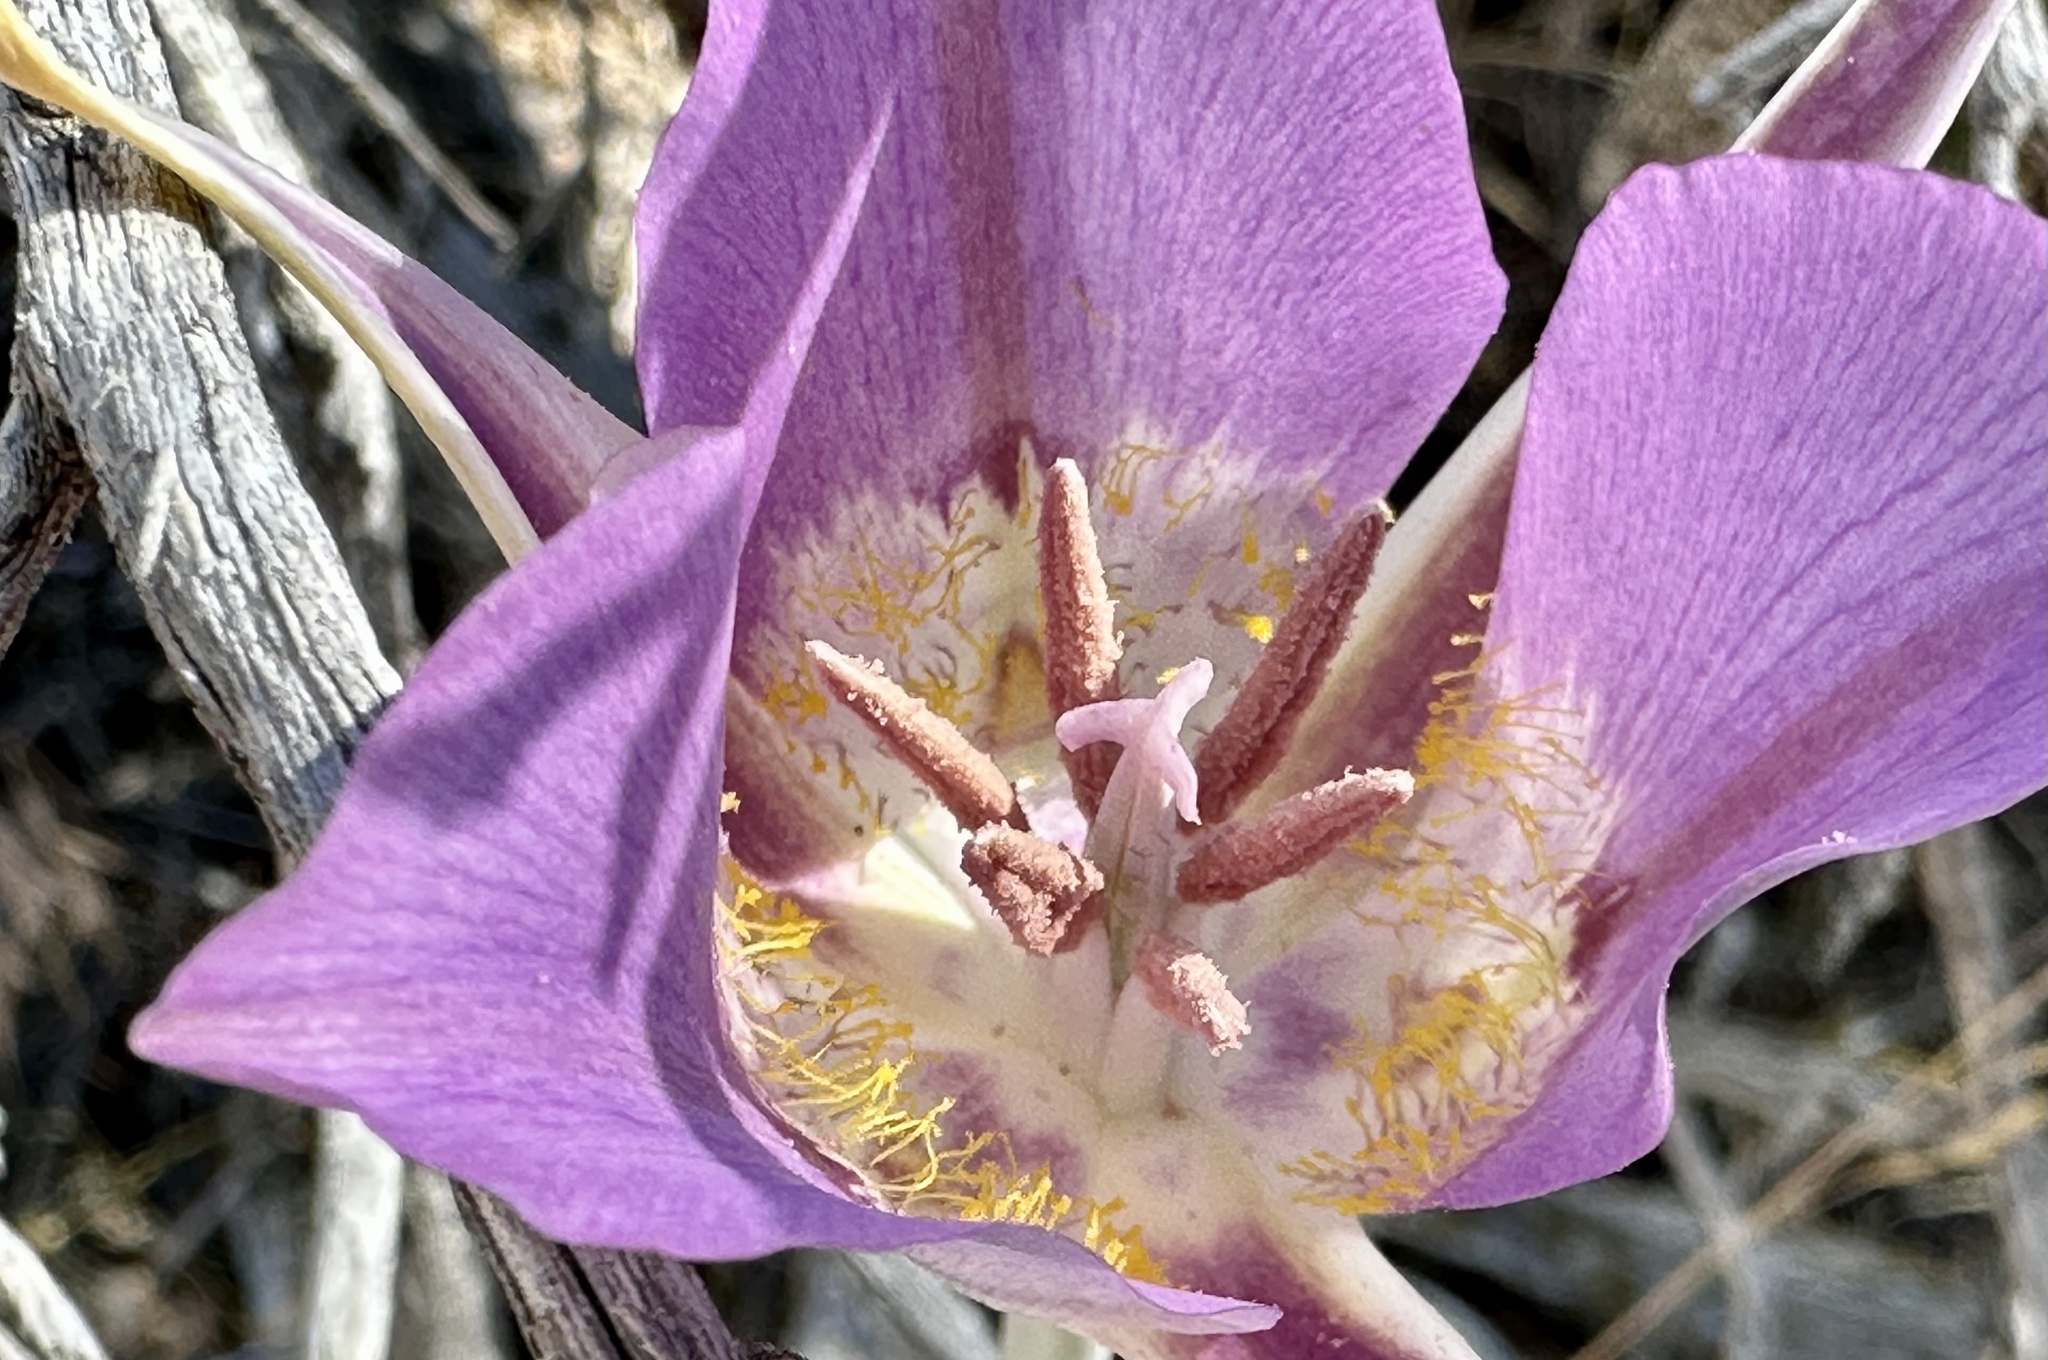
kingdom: Plantae
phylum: Tracheophyta
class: Liliopsida
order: Liliales
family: Liliaceae
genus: Calochortus
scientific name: Calochortus macrocarpus
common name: Green-band mariposa lily
